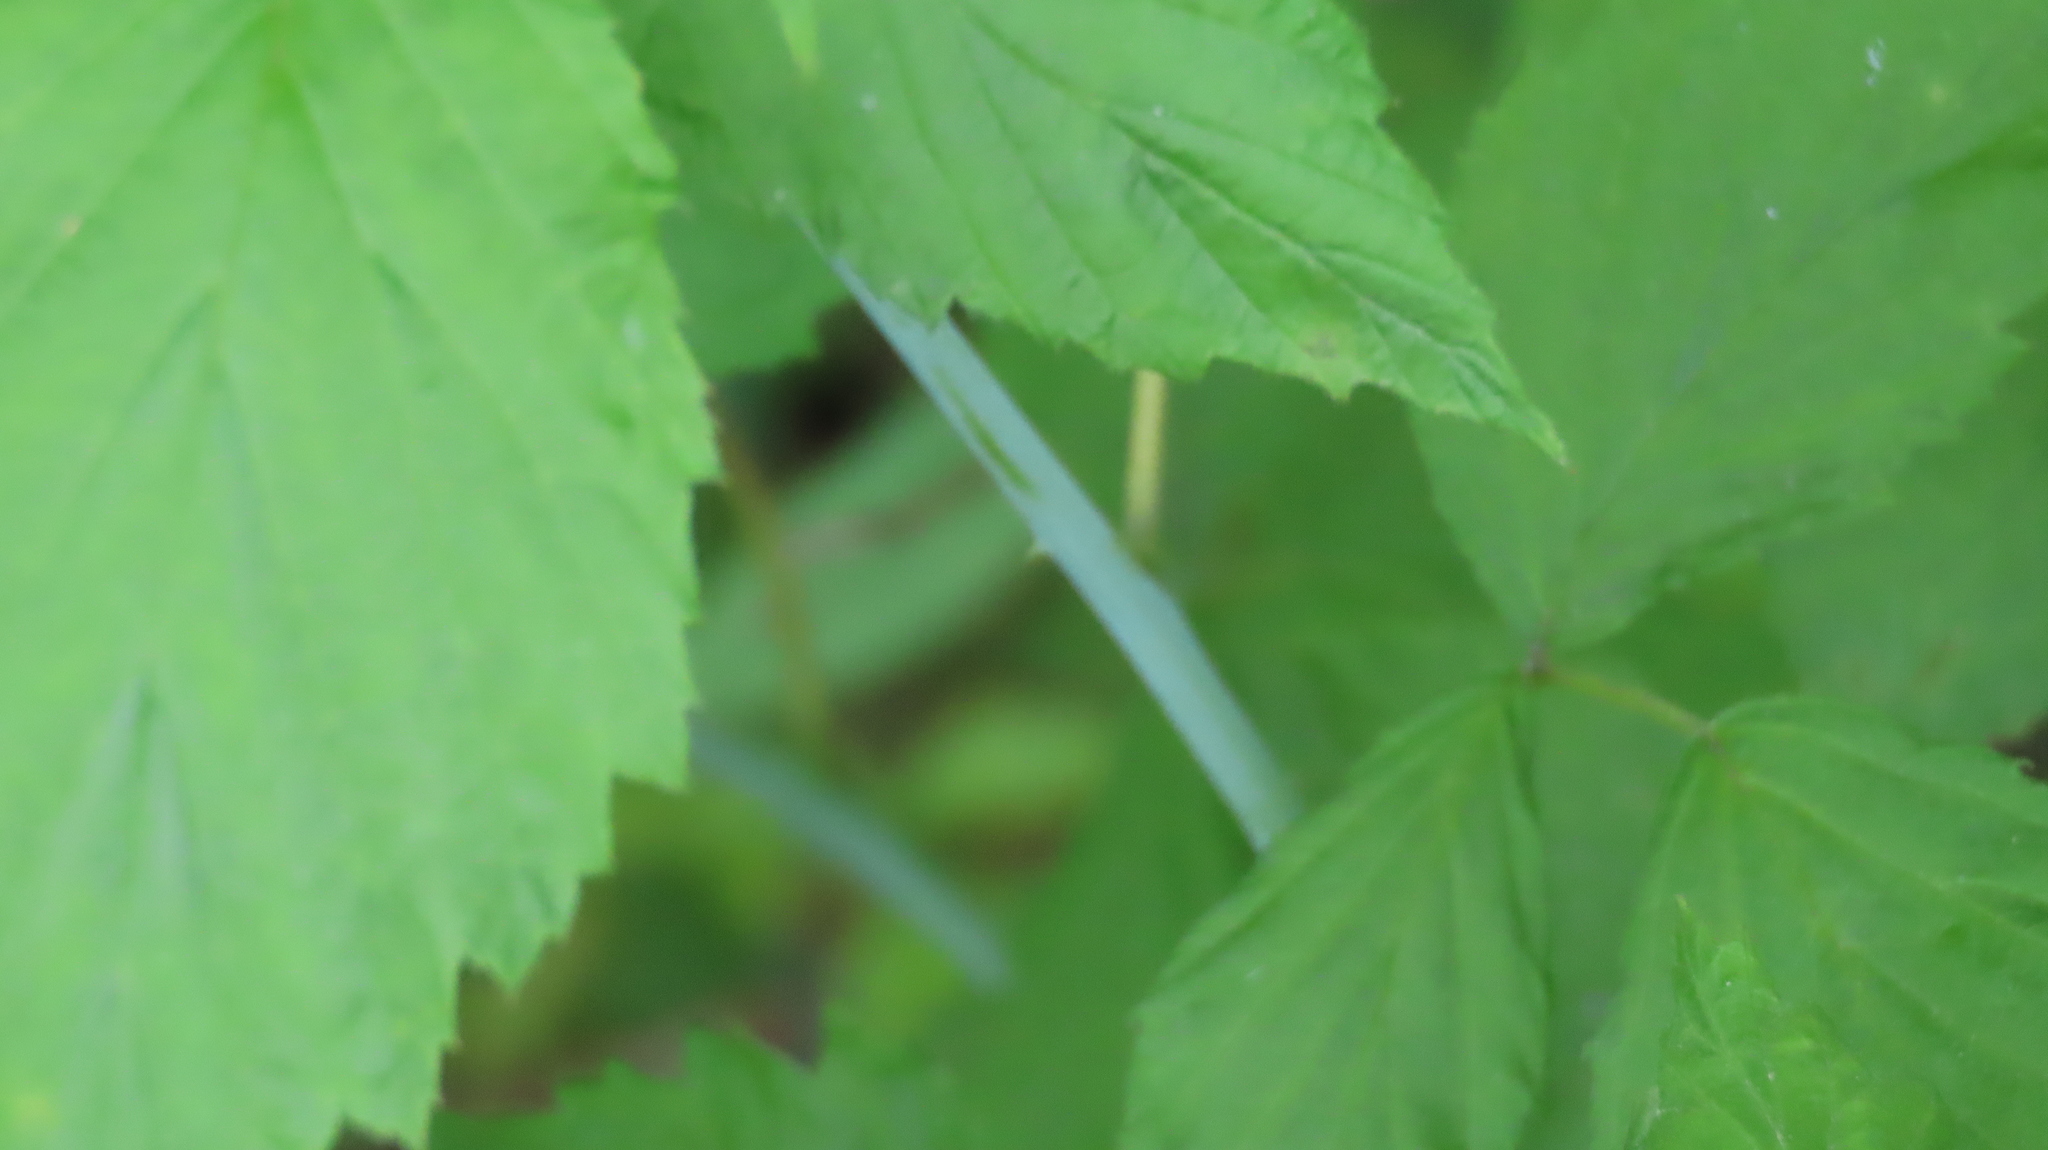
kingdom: Plantae
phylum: Tracheophyta
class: Magnoliopsida
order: Rosales
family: Rosaceae
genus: Rubus
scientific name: Rubus occidentalis
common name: Black raspberry
